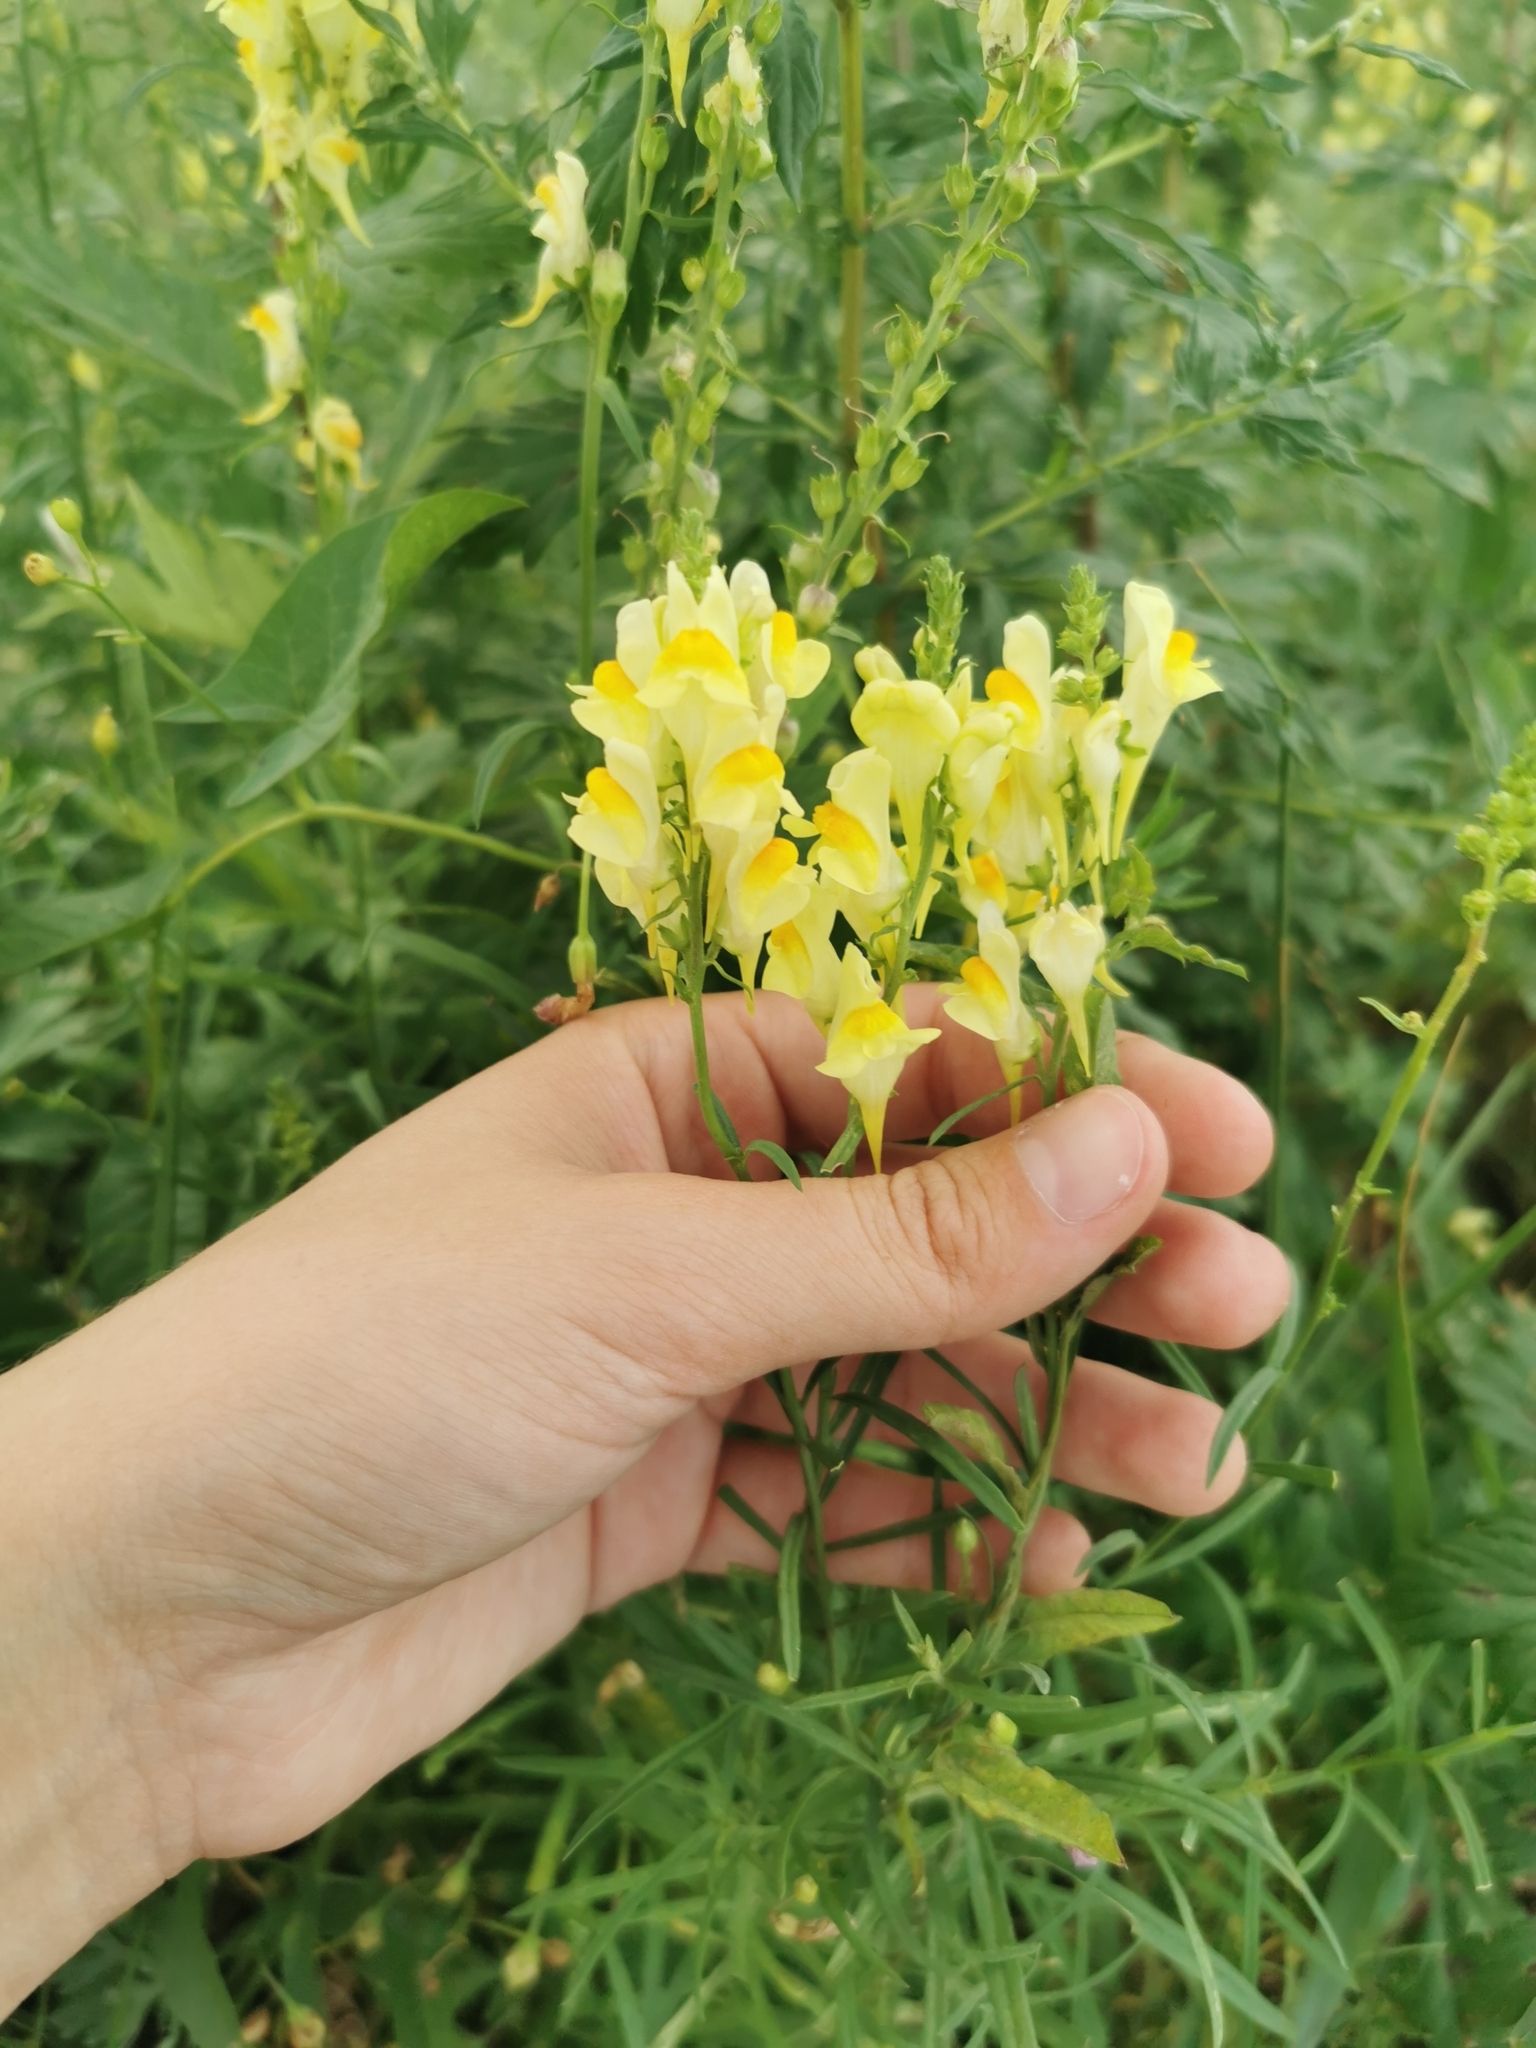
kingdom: Plantae
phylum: Tracheophyta
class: Magnoliopsida
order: Lamiales
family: Plantaginaceae
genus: Linaria
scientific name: Linaria vulgaris
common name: Butter and eggs
